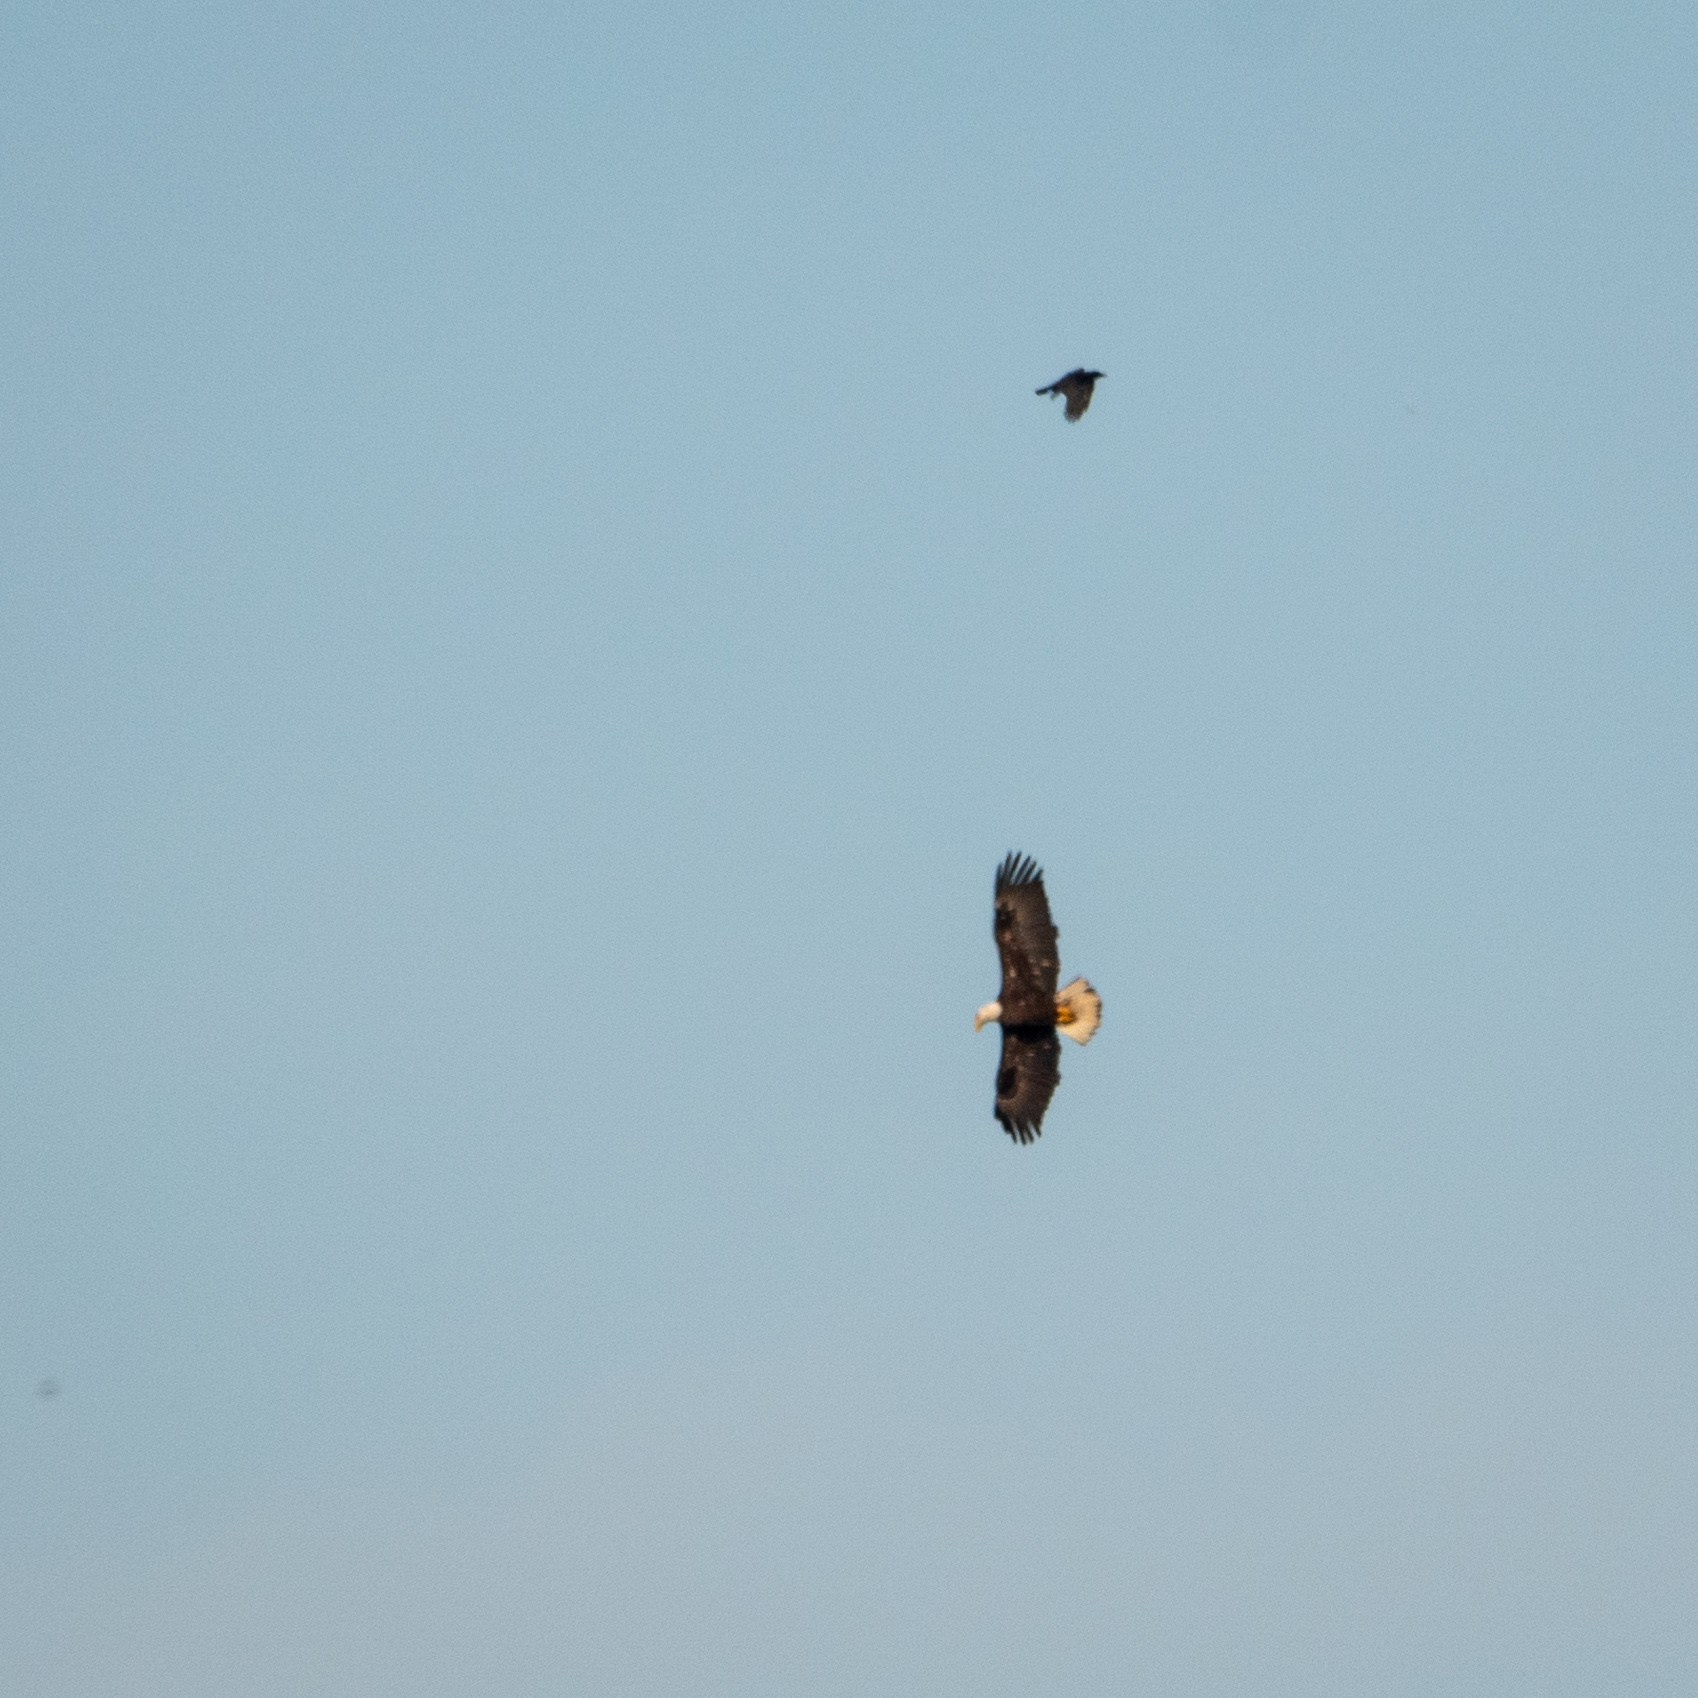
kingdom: Animalia
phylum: Chordata
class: Aves
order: Passeriformes
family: Corvidae
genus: Corvus
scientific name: Corvus
